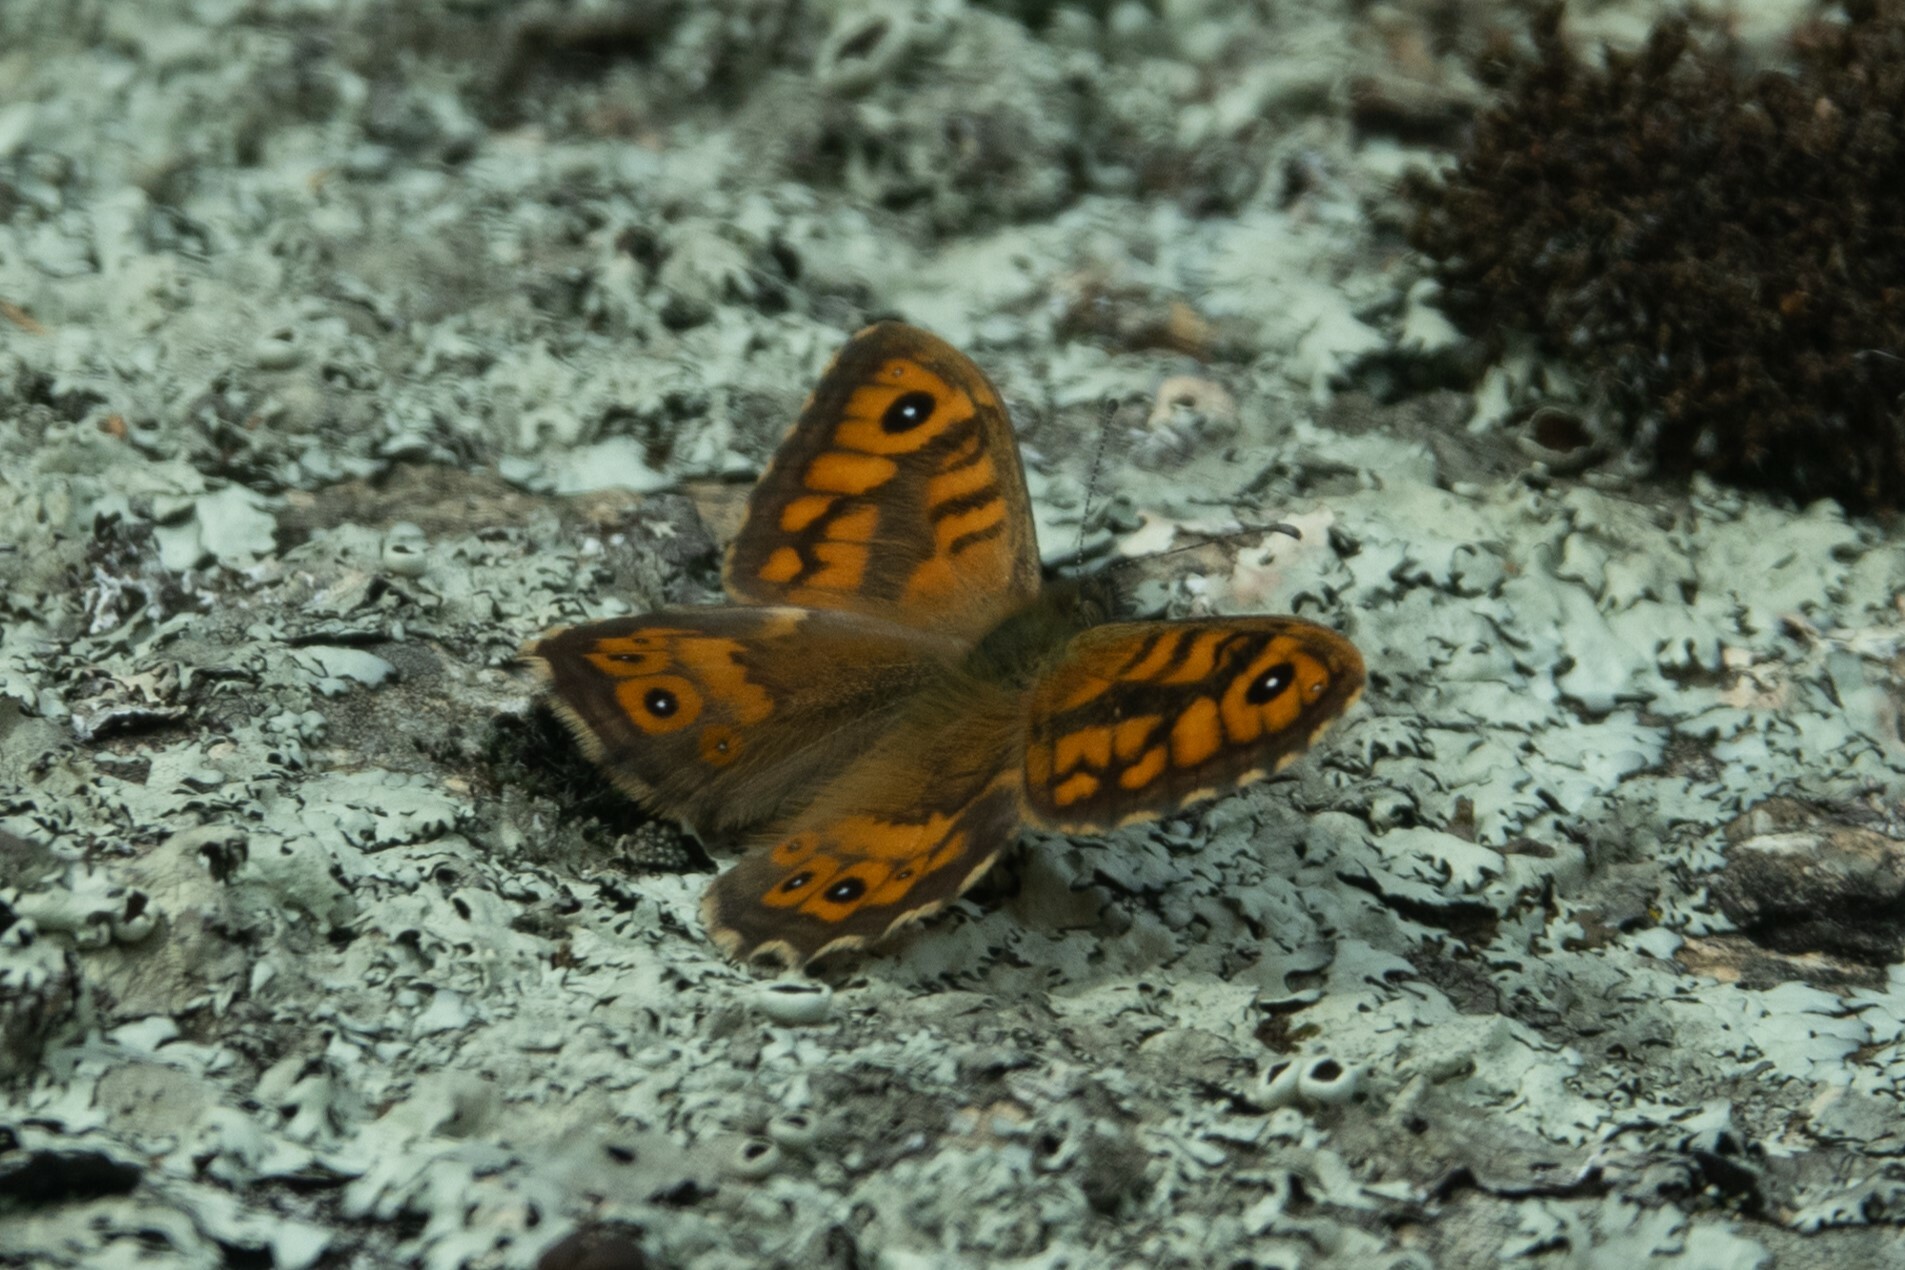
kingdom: Animalia
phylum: Arthropoda
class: Insecta
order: Lepidoptera
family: Nymphalidae
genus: Pararge
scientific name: Pararge Lasiommata megera
